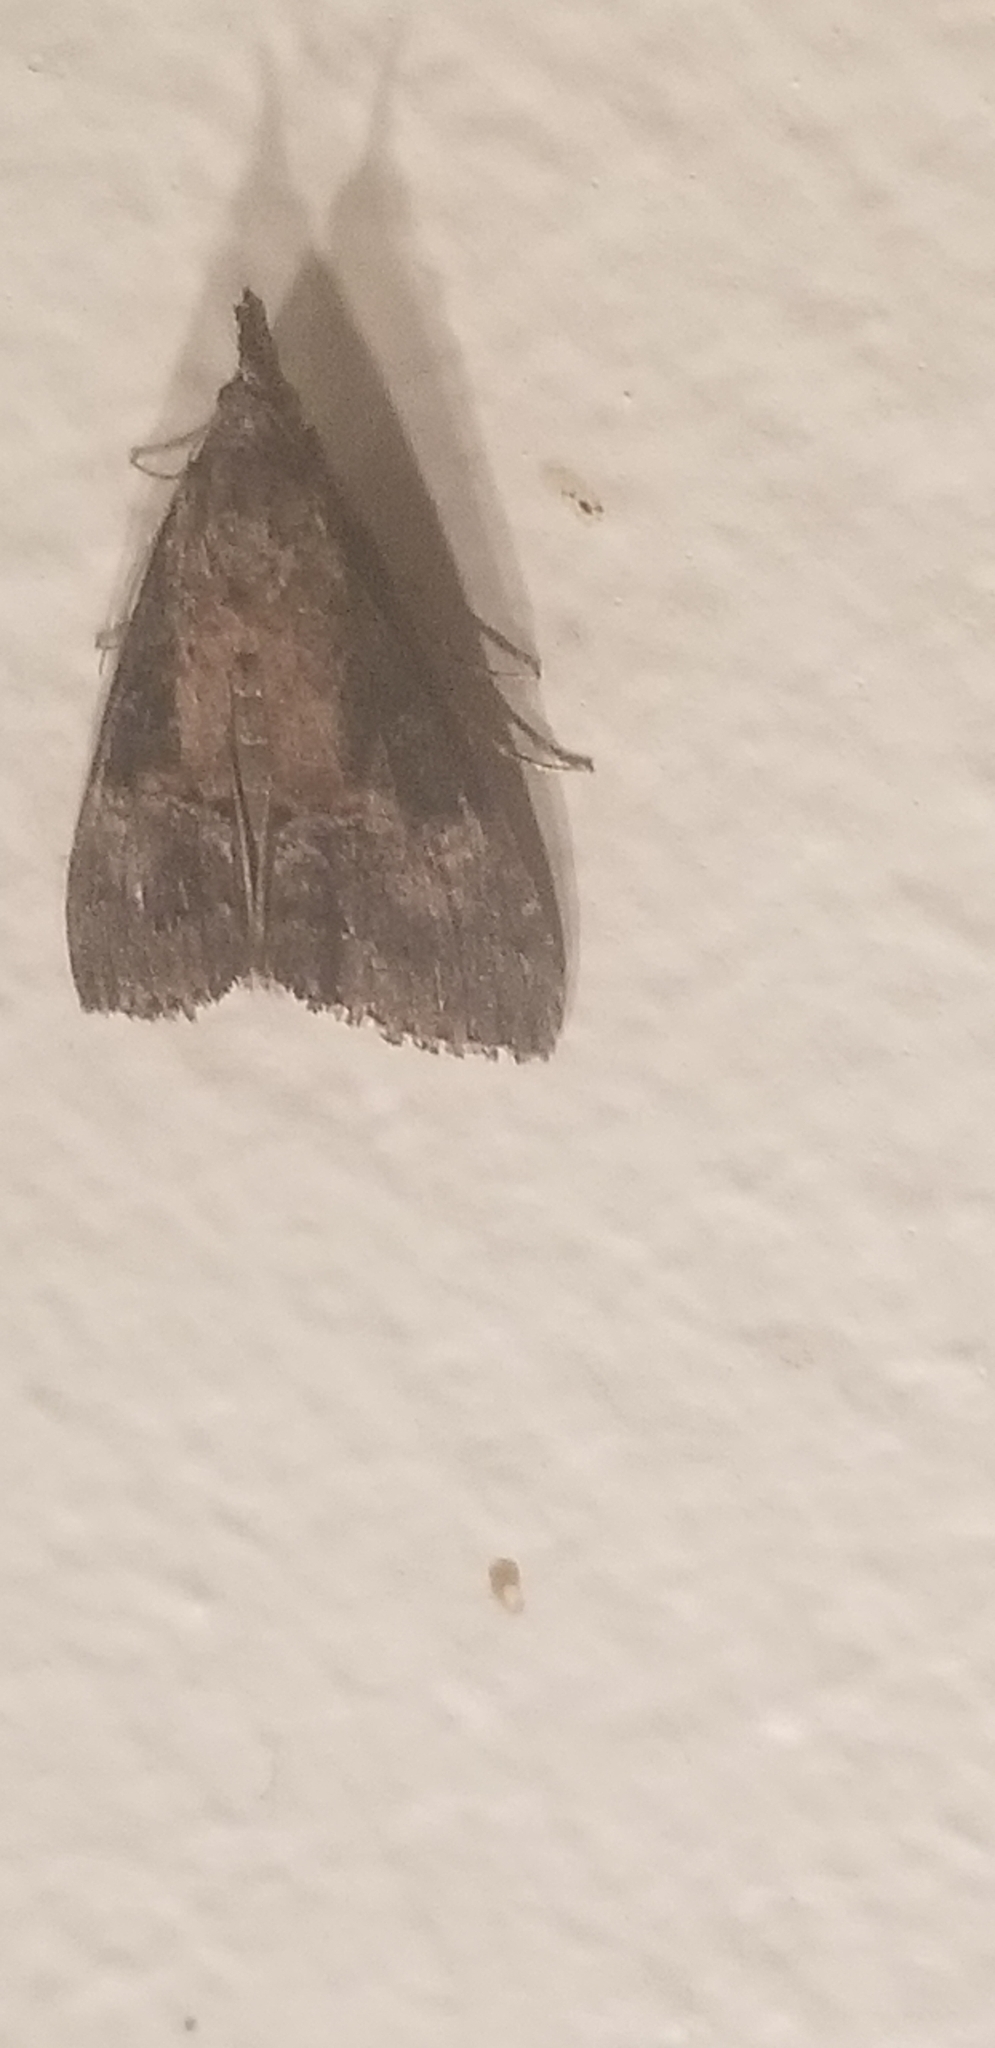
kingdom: Animalia
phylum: Arthropoda
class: Insecta
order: Lepidoptera
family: Erebidae
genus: Hypena
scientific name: Hypena scabra
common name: Green cloverworm
